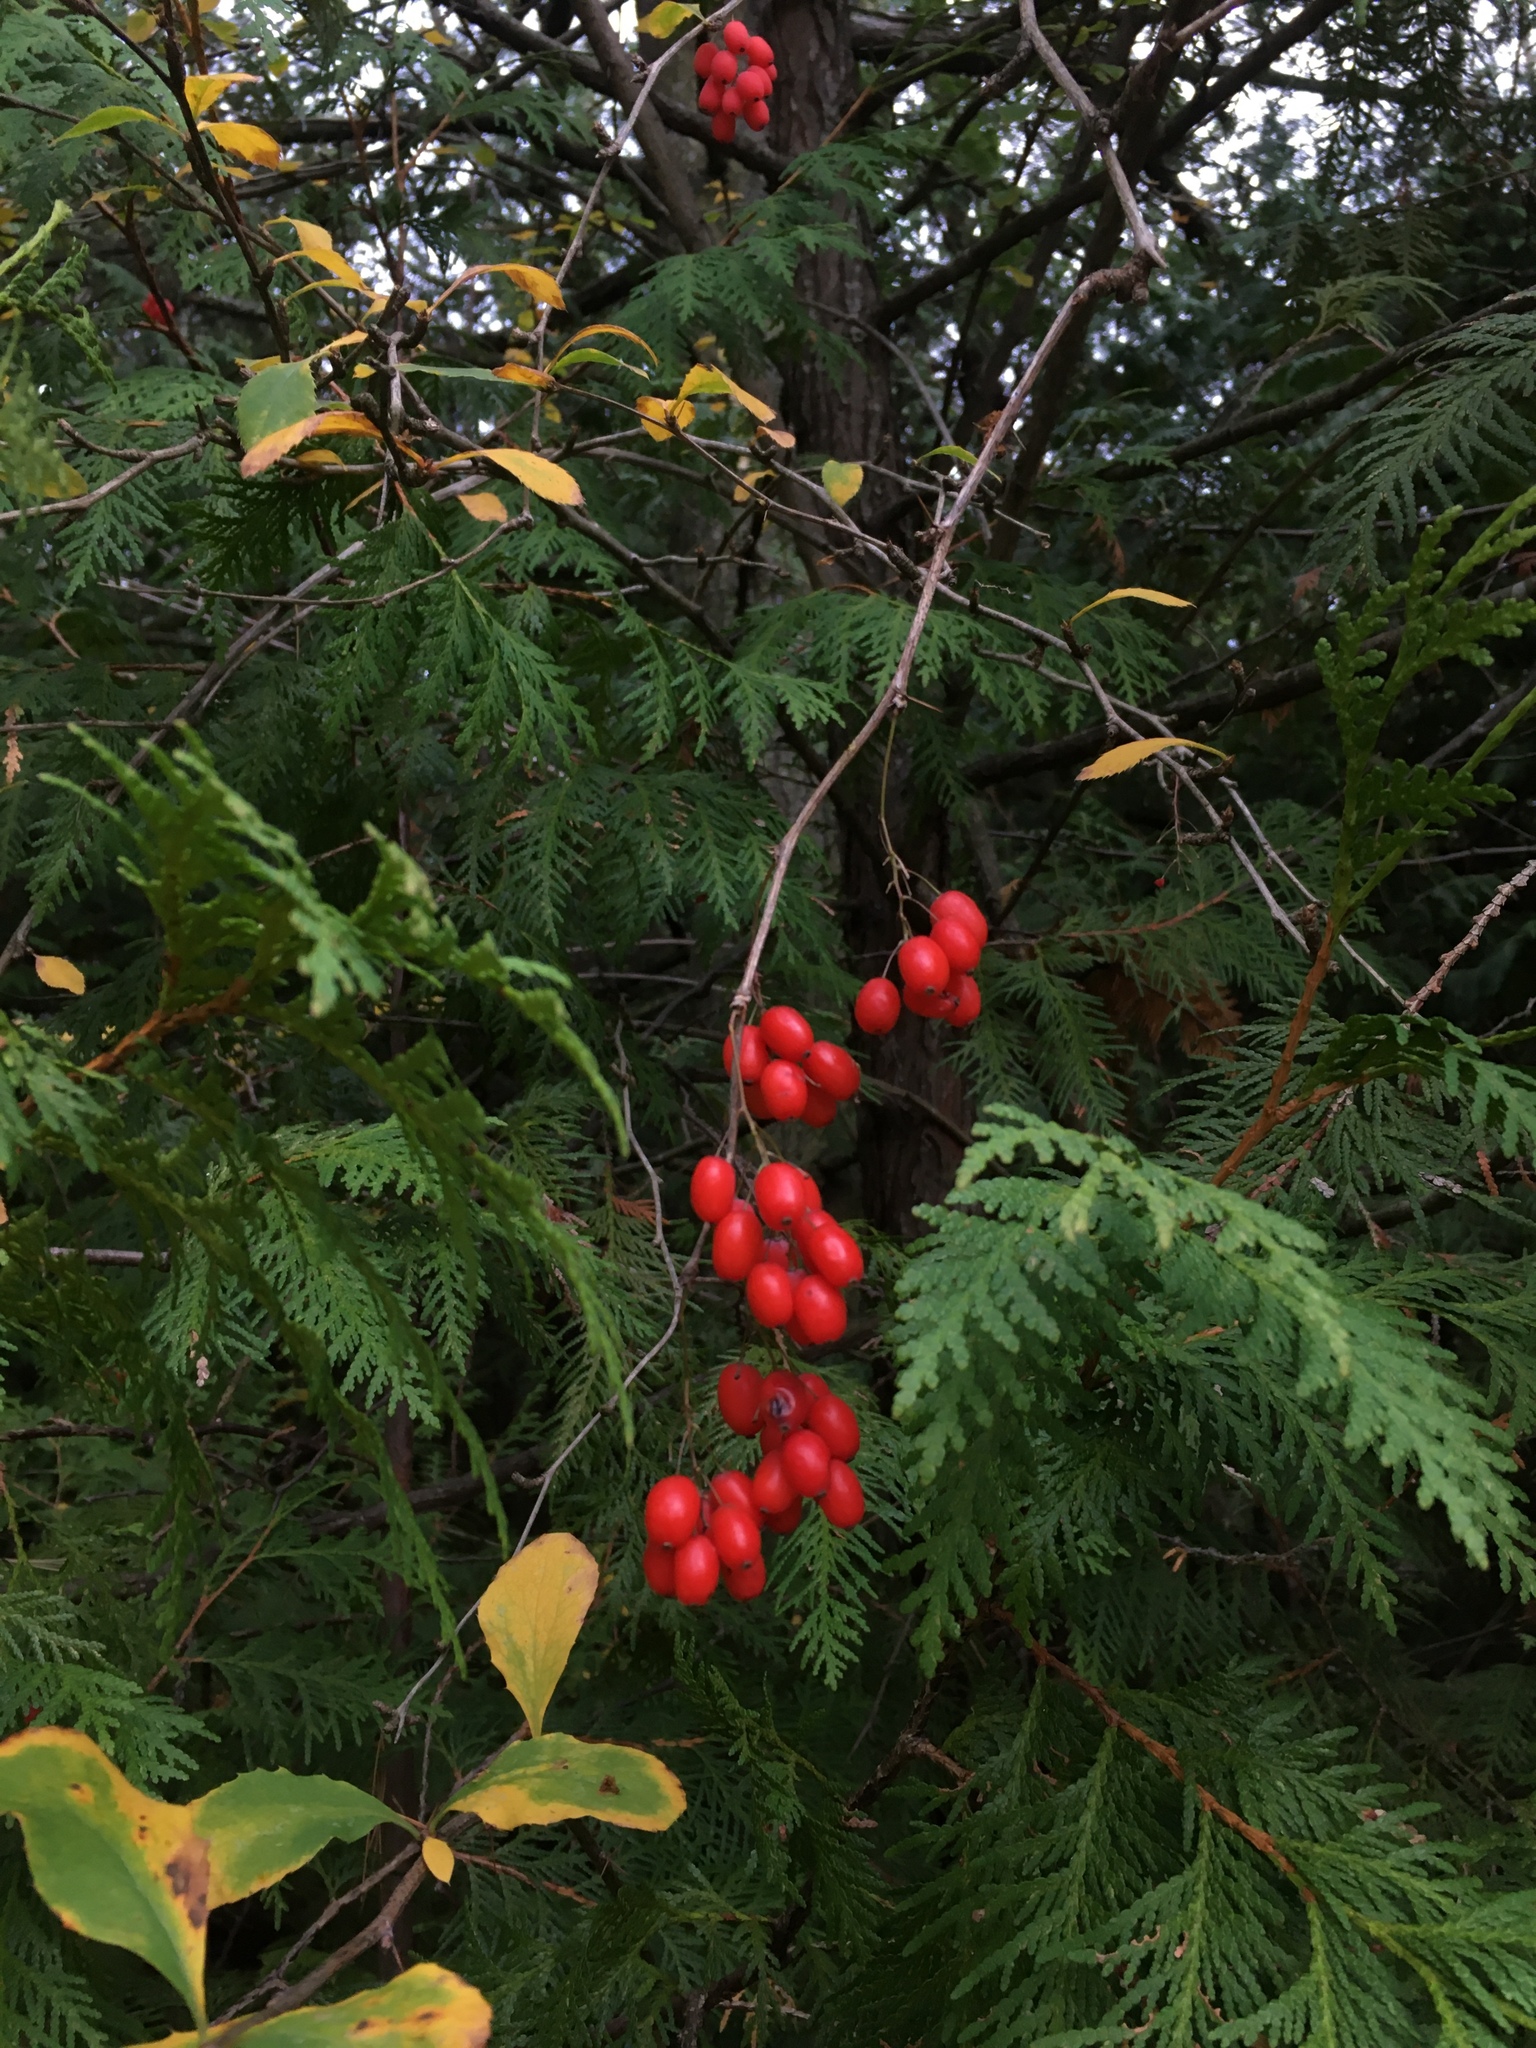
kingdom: Plantae
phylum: Tracheophyta
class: Magnoliopsida
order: Ranunculales
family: Berberidaceae
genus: Berberis
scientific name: Berberis vulgaris
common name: Barberry
